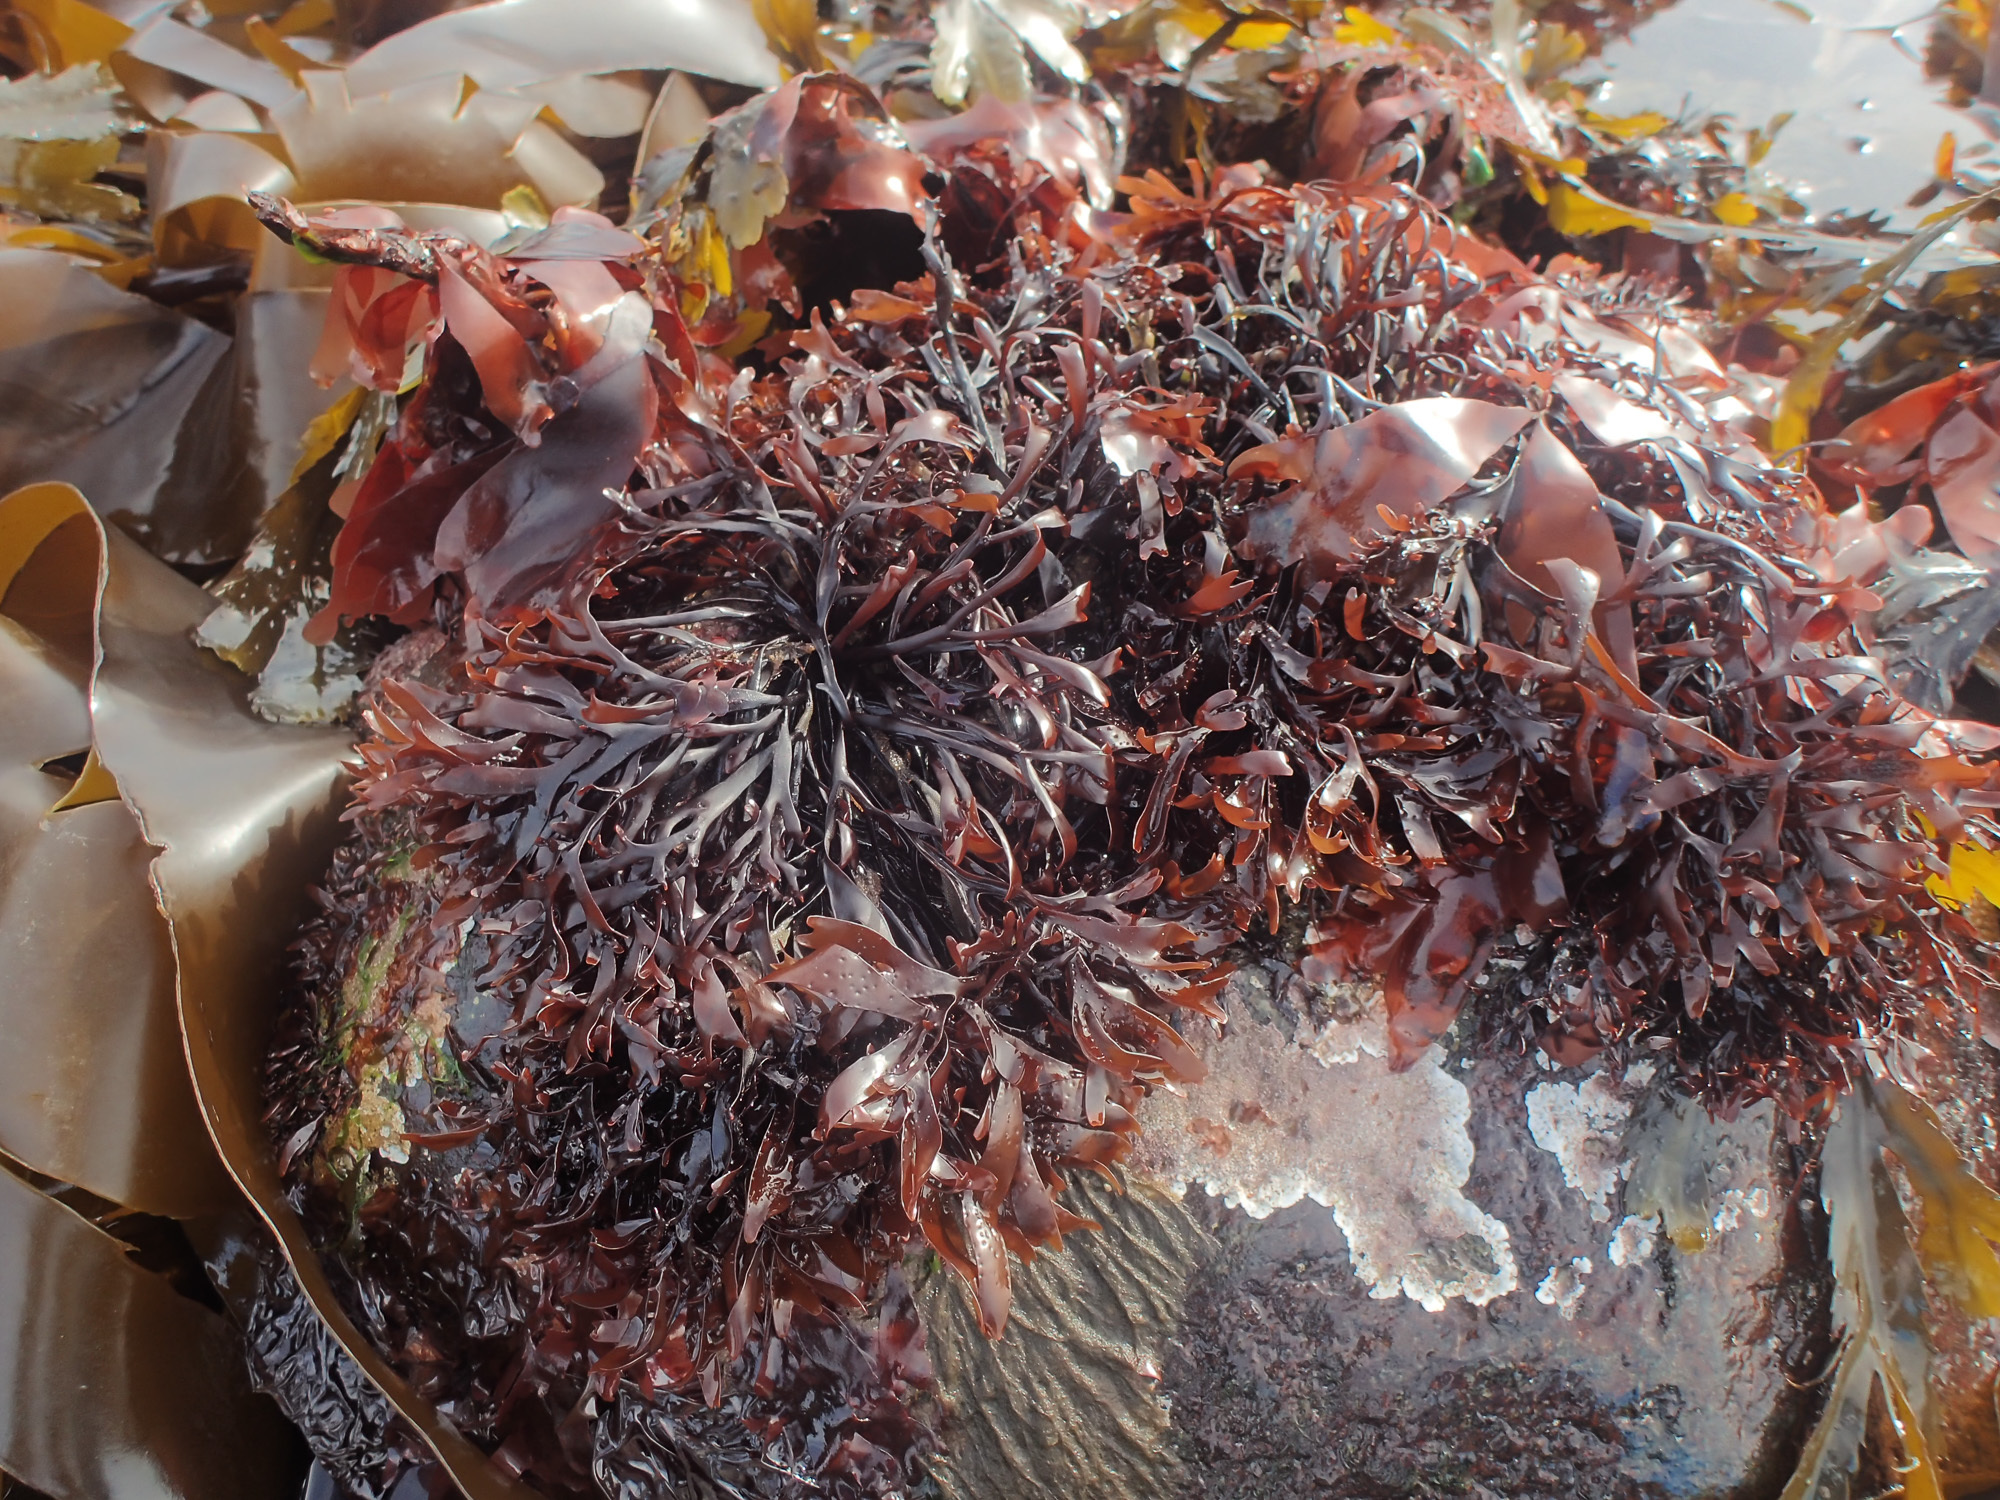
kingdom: Plantae
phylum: Rhodophyta
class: Florideophyceae
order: Gigartinales
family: Phyllophoraceae
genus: Mastocarpus
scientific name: Mastocarpus stellatus
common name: False irish moss
